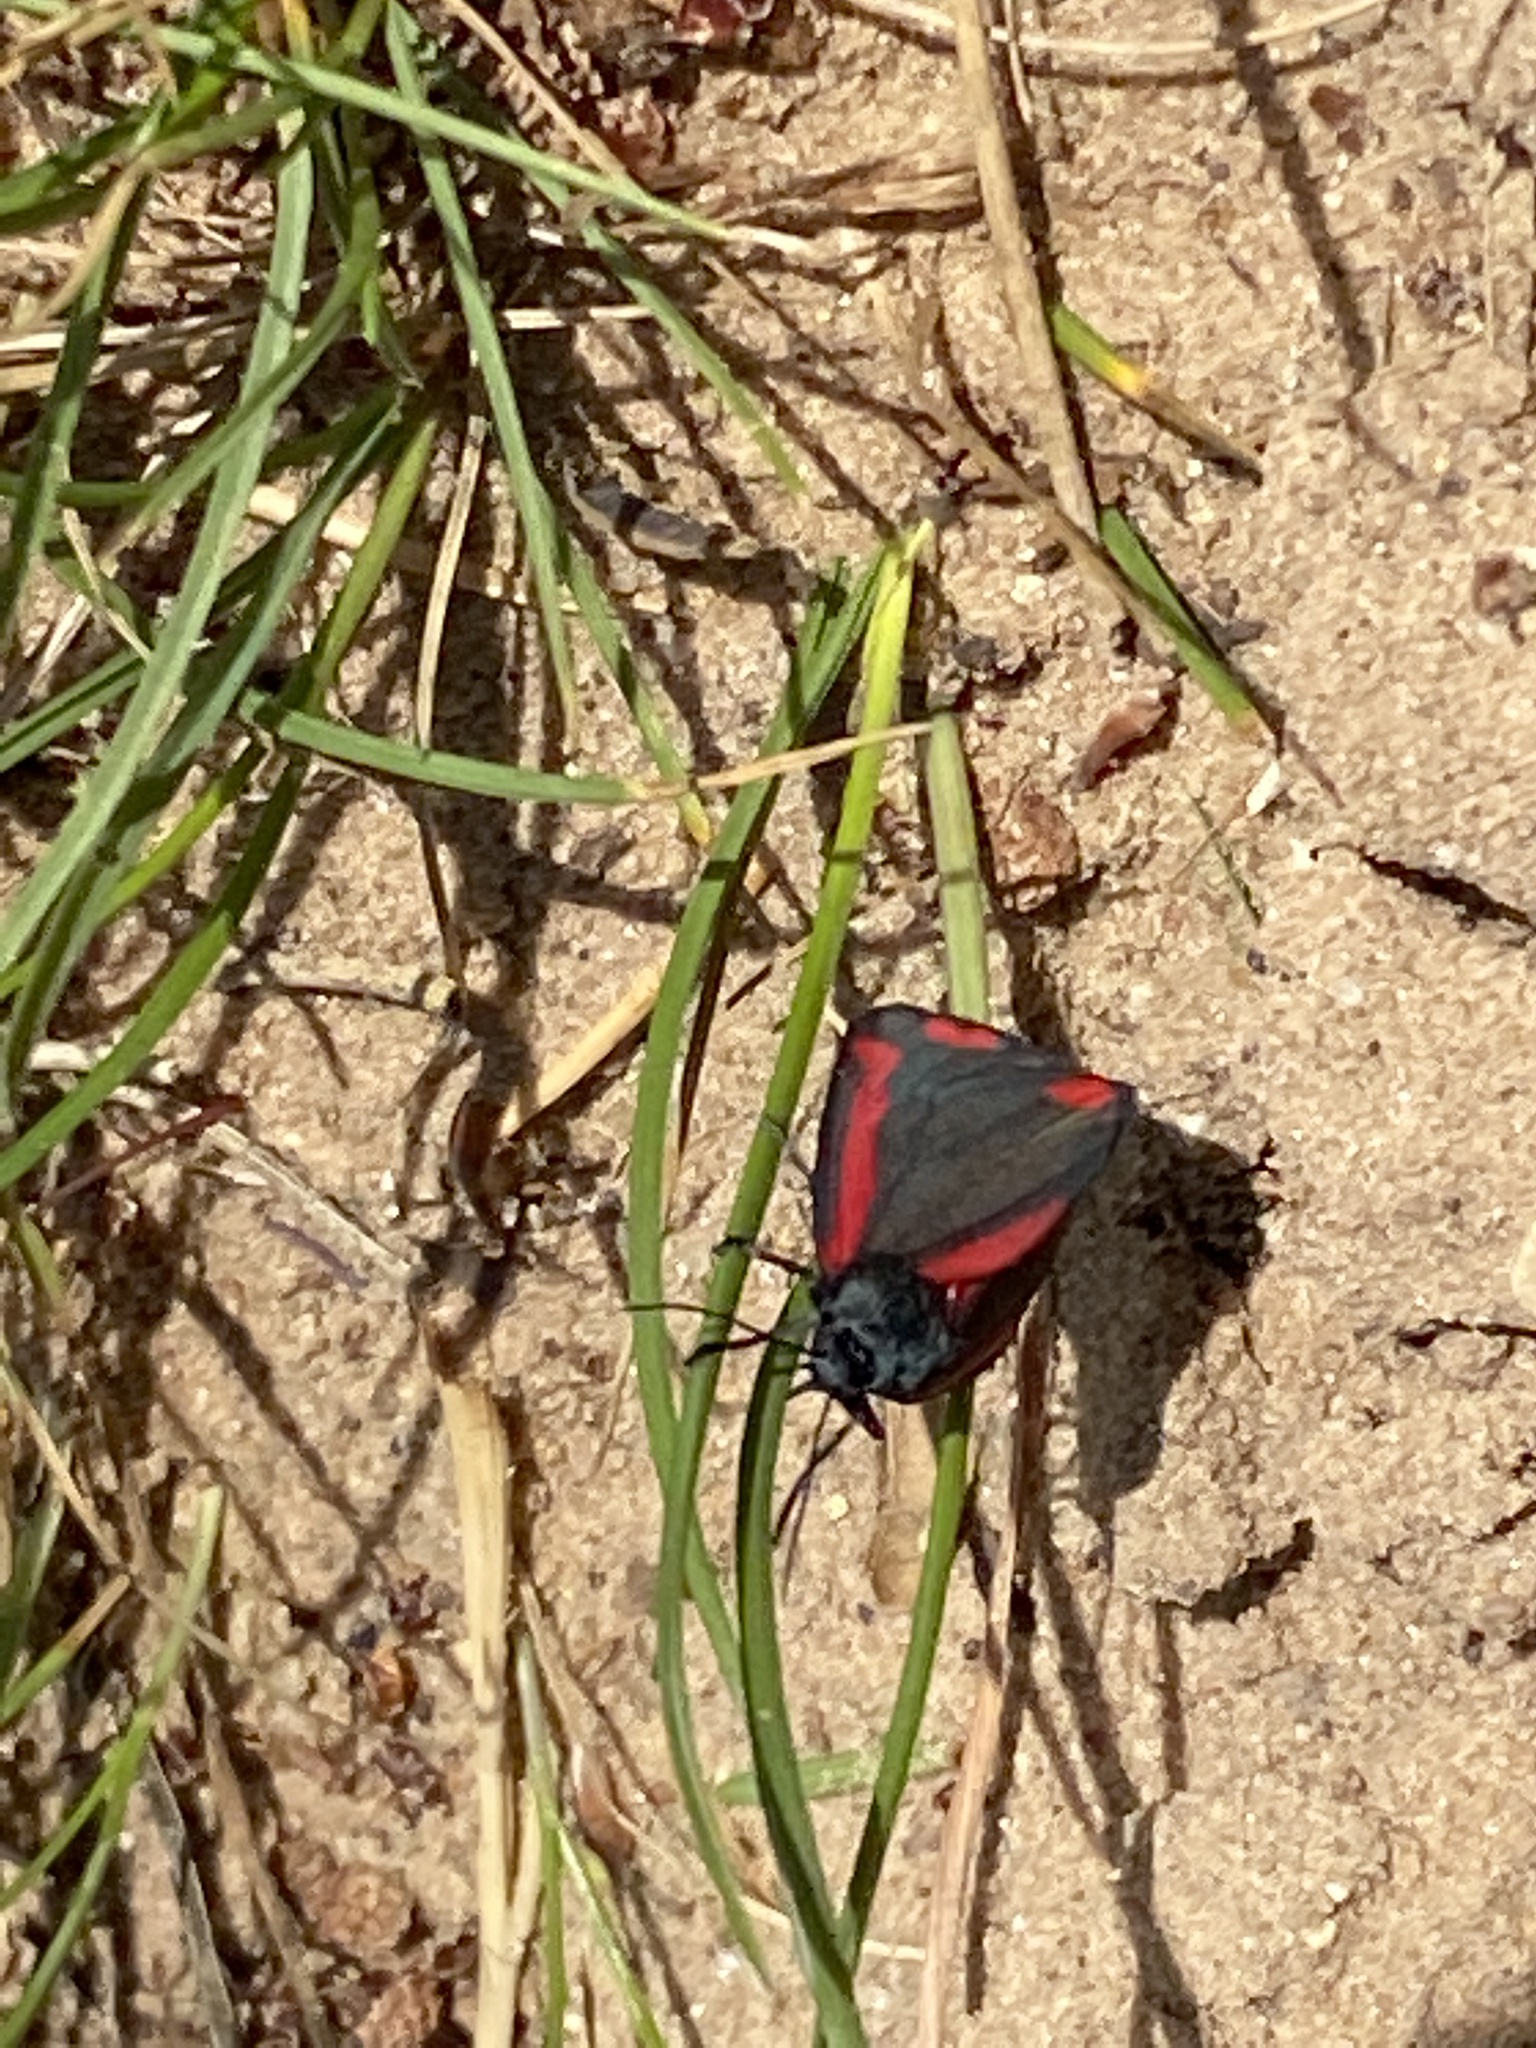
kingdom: Animalia
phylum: Arthropoda
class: Insecta
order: Lepidoptera
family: Erebidae
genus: Tyria
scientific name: Tyria jacobaeae
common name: Cinnabar
